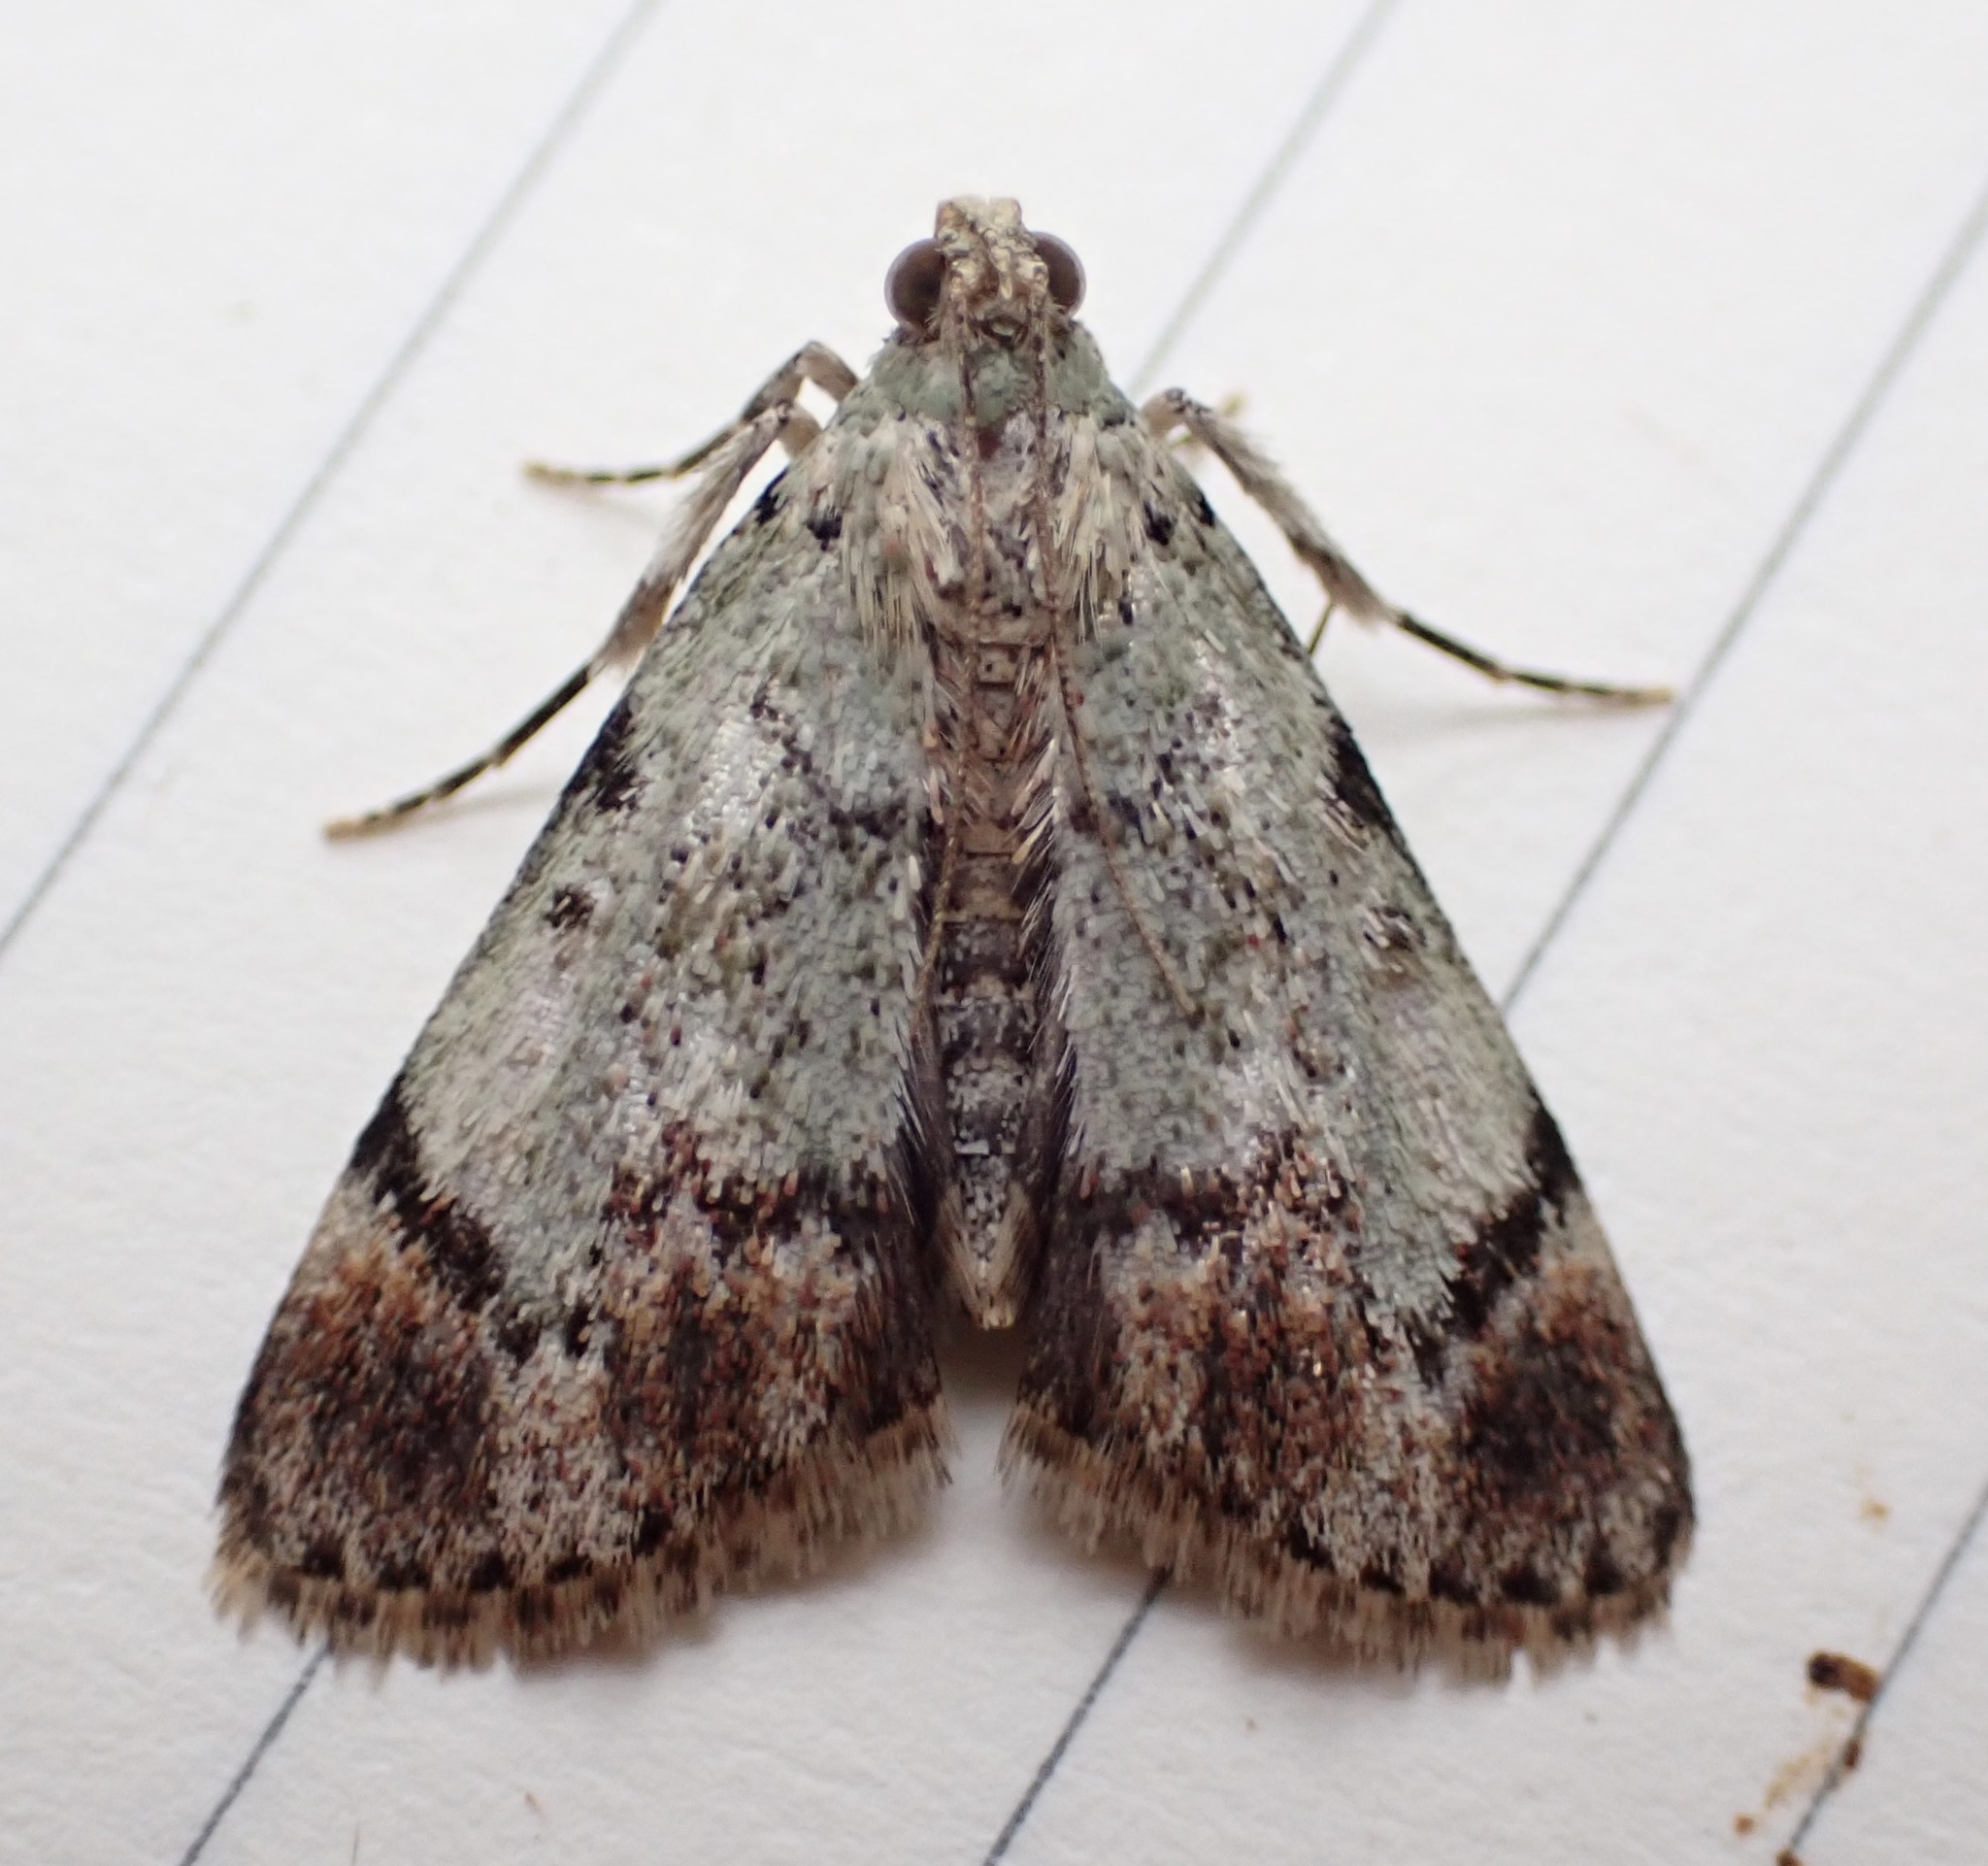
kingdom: Animalia
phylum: Arthropoda
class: Insecta
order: Lepidoptera
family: Pyralidae
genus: Epipaschia
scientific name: Epipaschia superatalis
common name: Dimorphic macalla moth
